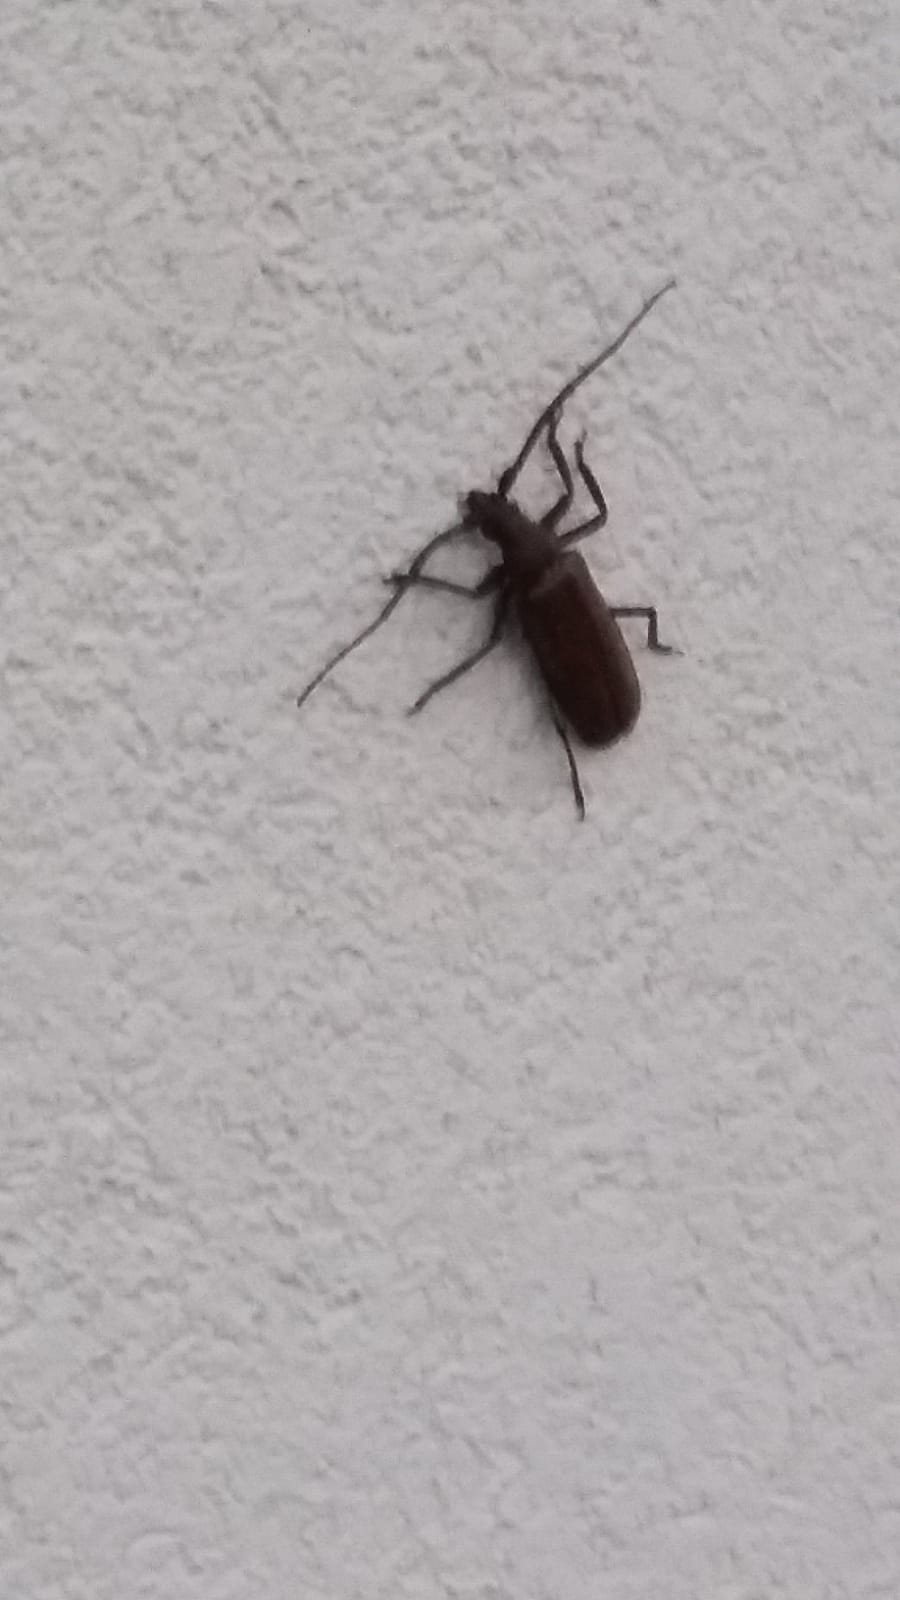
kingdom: Animalia
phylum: Arthropoda
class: Insecta
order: Coleoptera
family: Cerambycidae
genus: Aegosoma
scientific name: Aegosoma scabricorne
